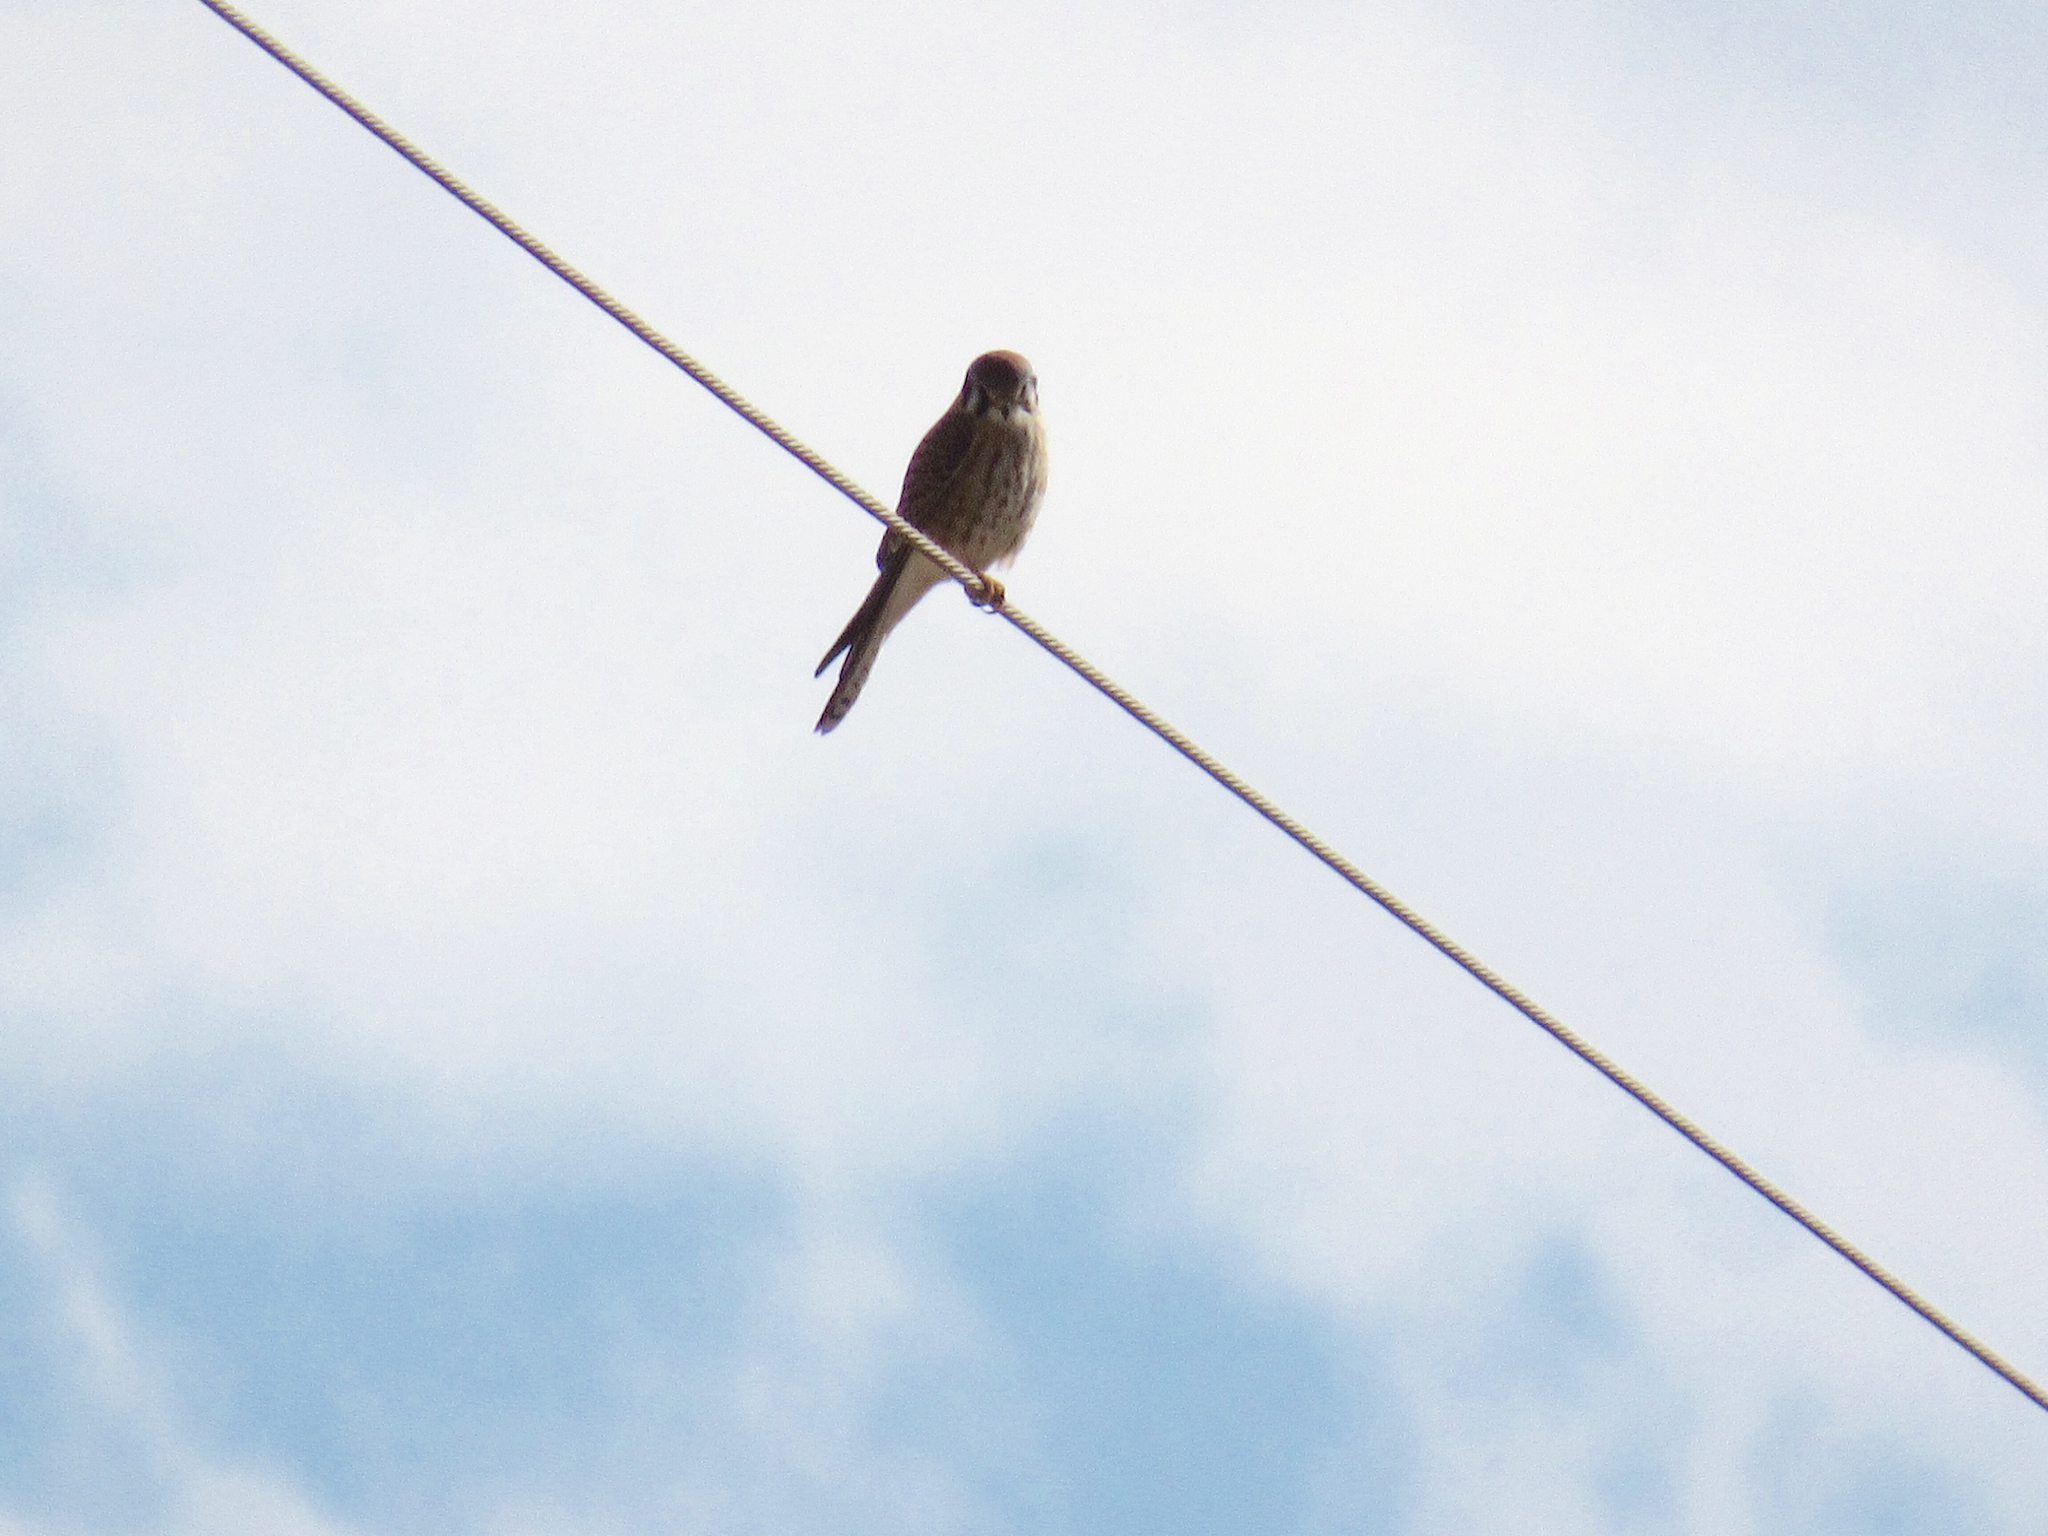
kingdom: Animalia
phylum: Chordata
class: Aves
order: Falconiformes
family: Falconidae
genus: Falco
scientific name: Falco sparverius
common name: American kestrel
